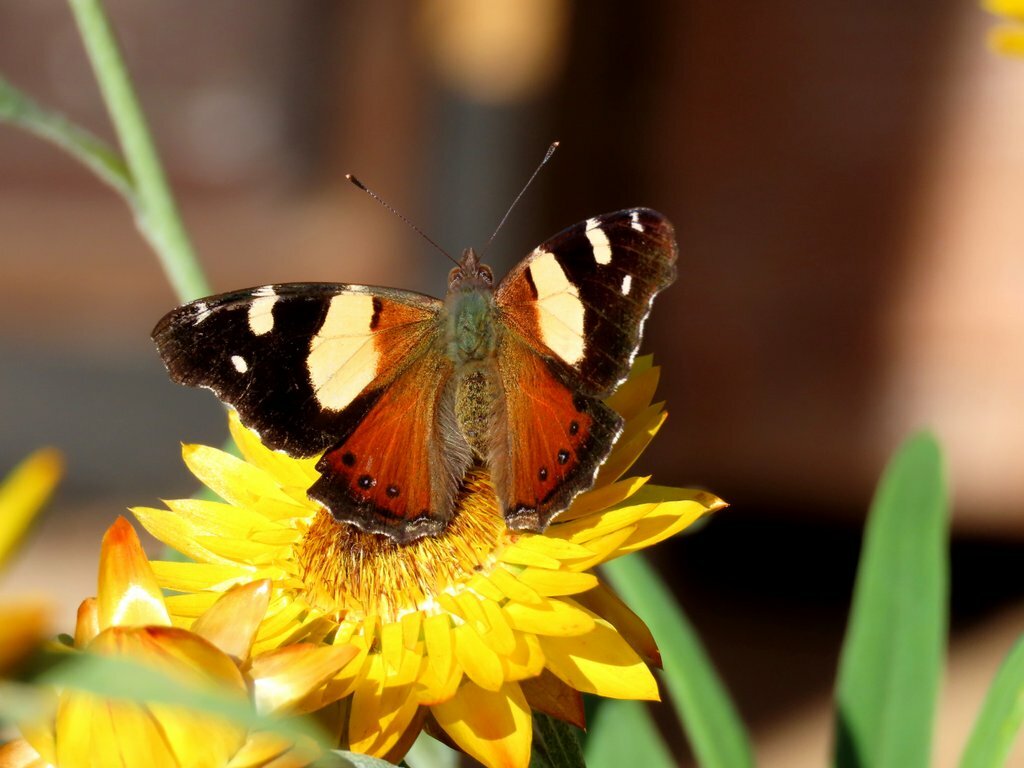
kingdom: Animalia
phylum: Arthropoda
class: Insecta
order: Lepidoptera
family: Nymphalidae
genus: Vanessa
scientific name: Vanessa itea
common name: Yellow admiral
